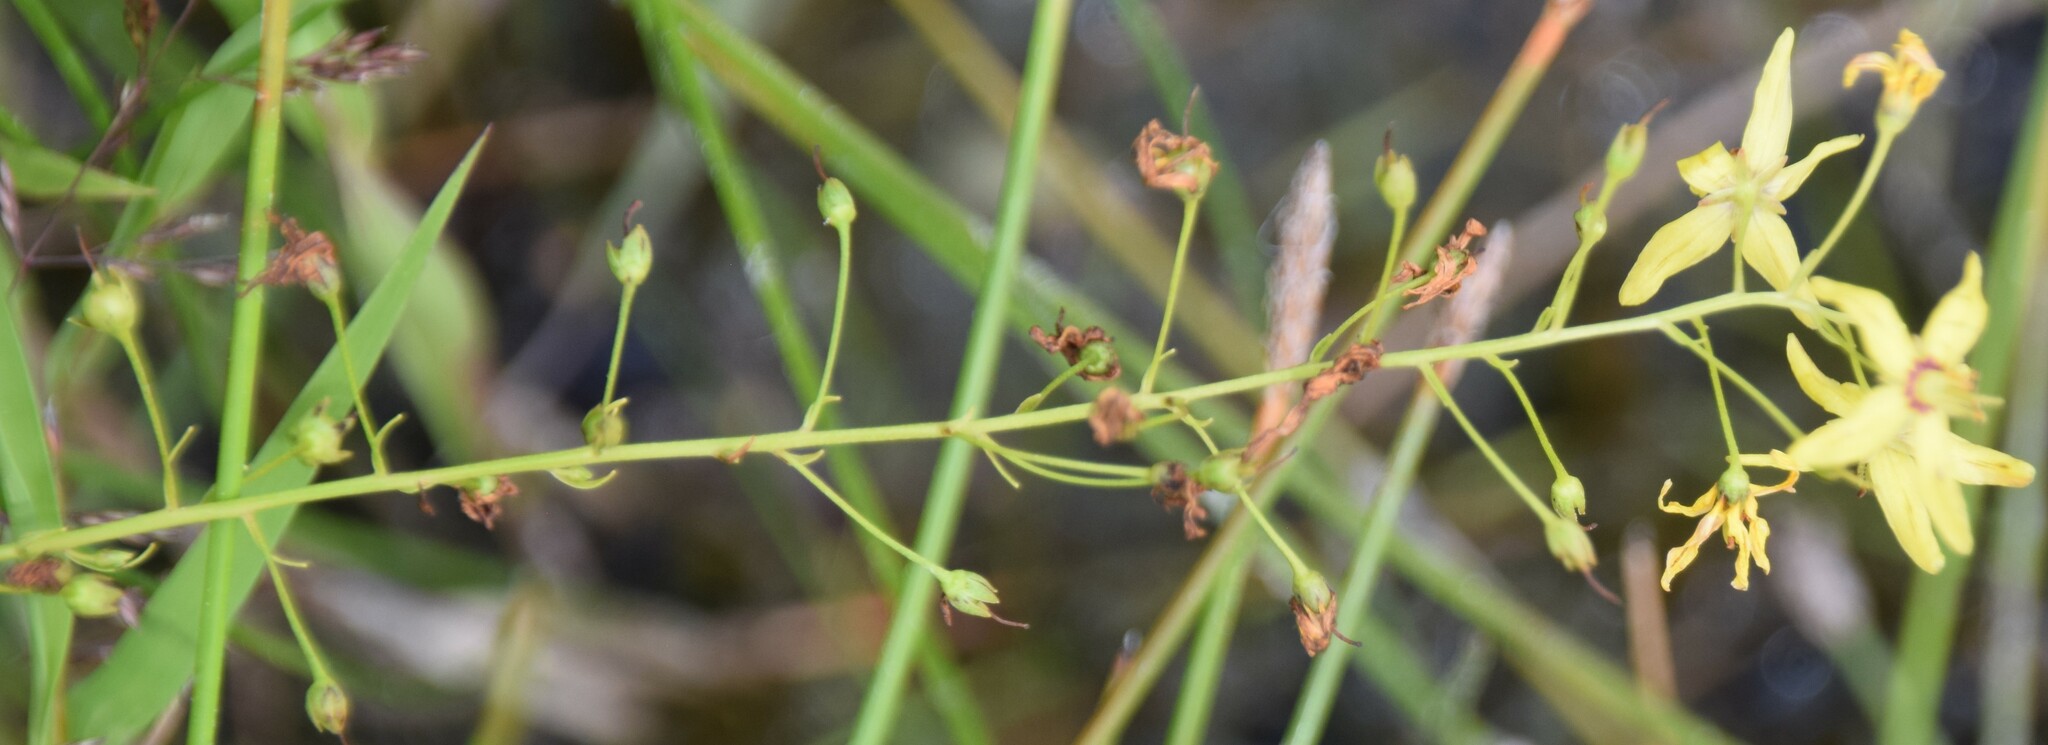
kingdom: Plantae
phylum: Tracheophyta
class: Magnoliopsida
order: Ericales
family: Primulaceae
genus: Lysimachia
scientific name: Lysimachia terrestris
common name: Lake loosestrife
